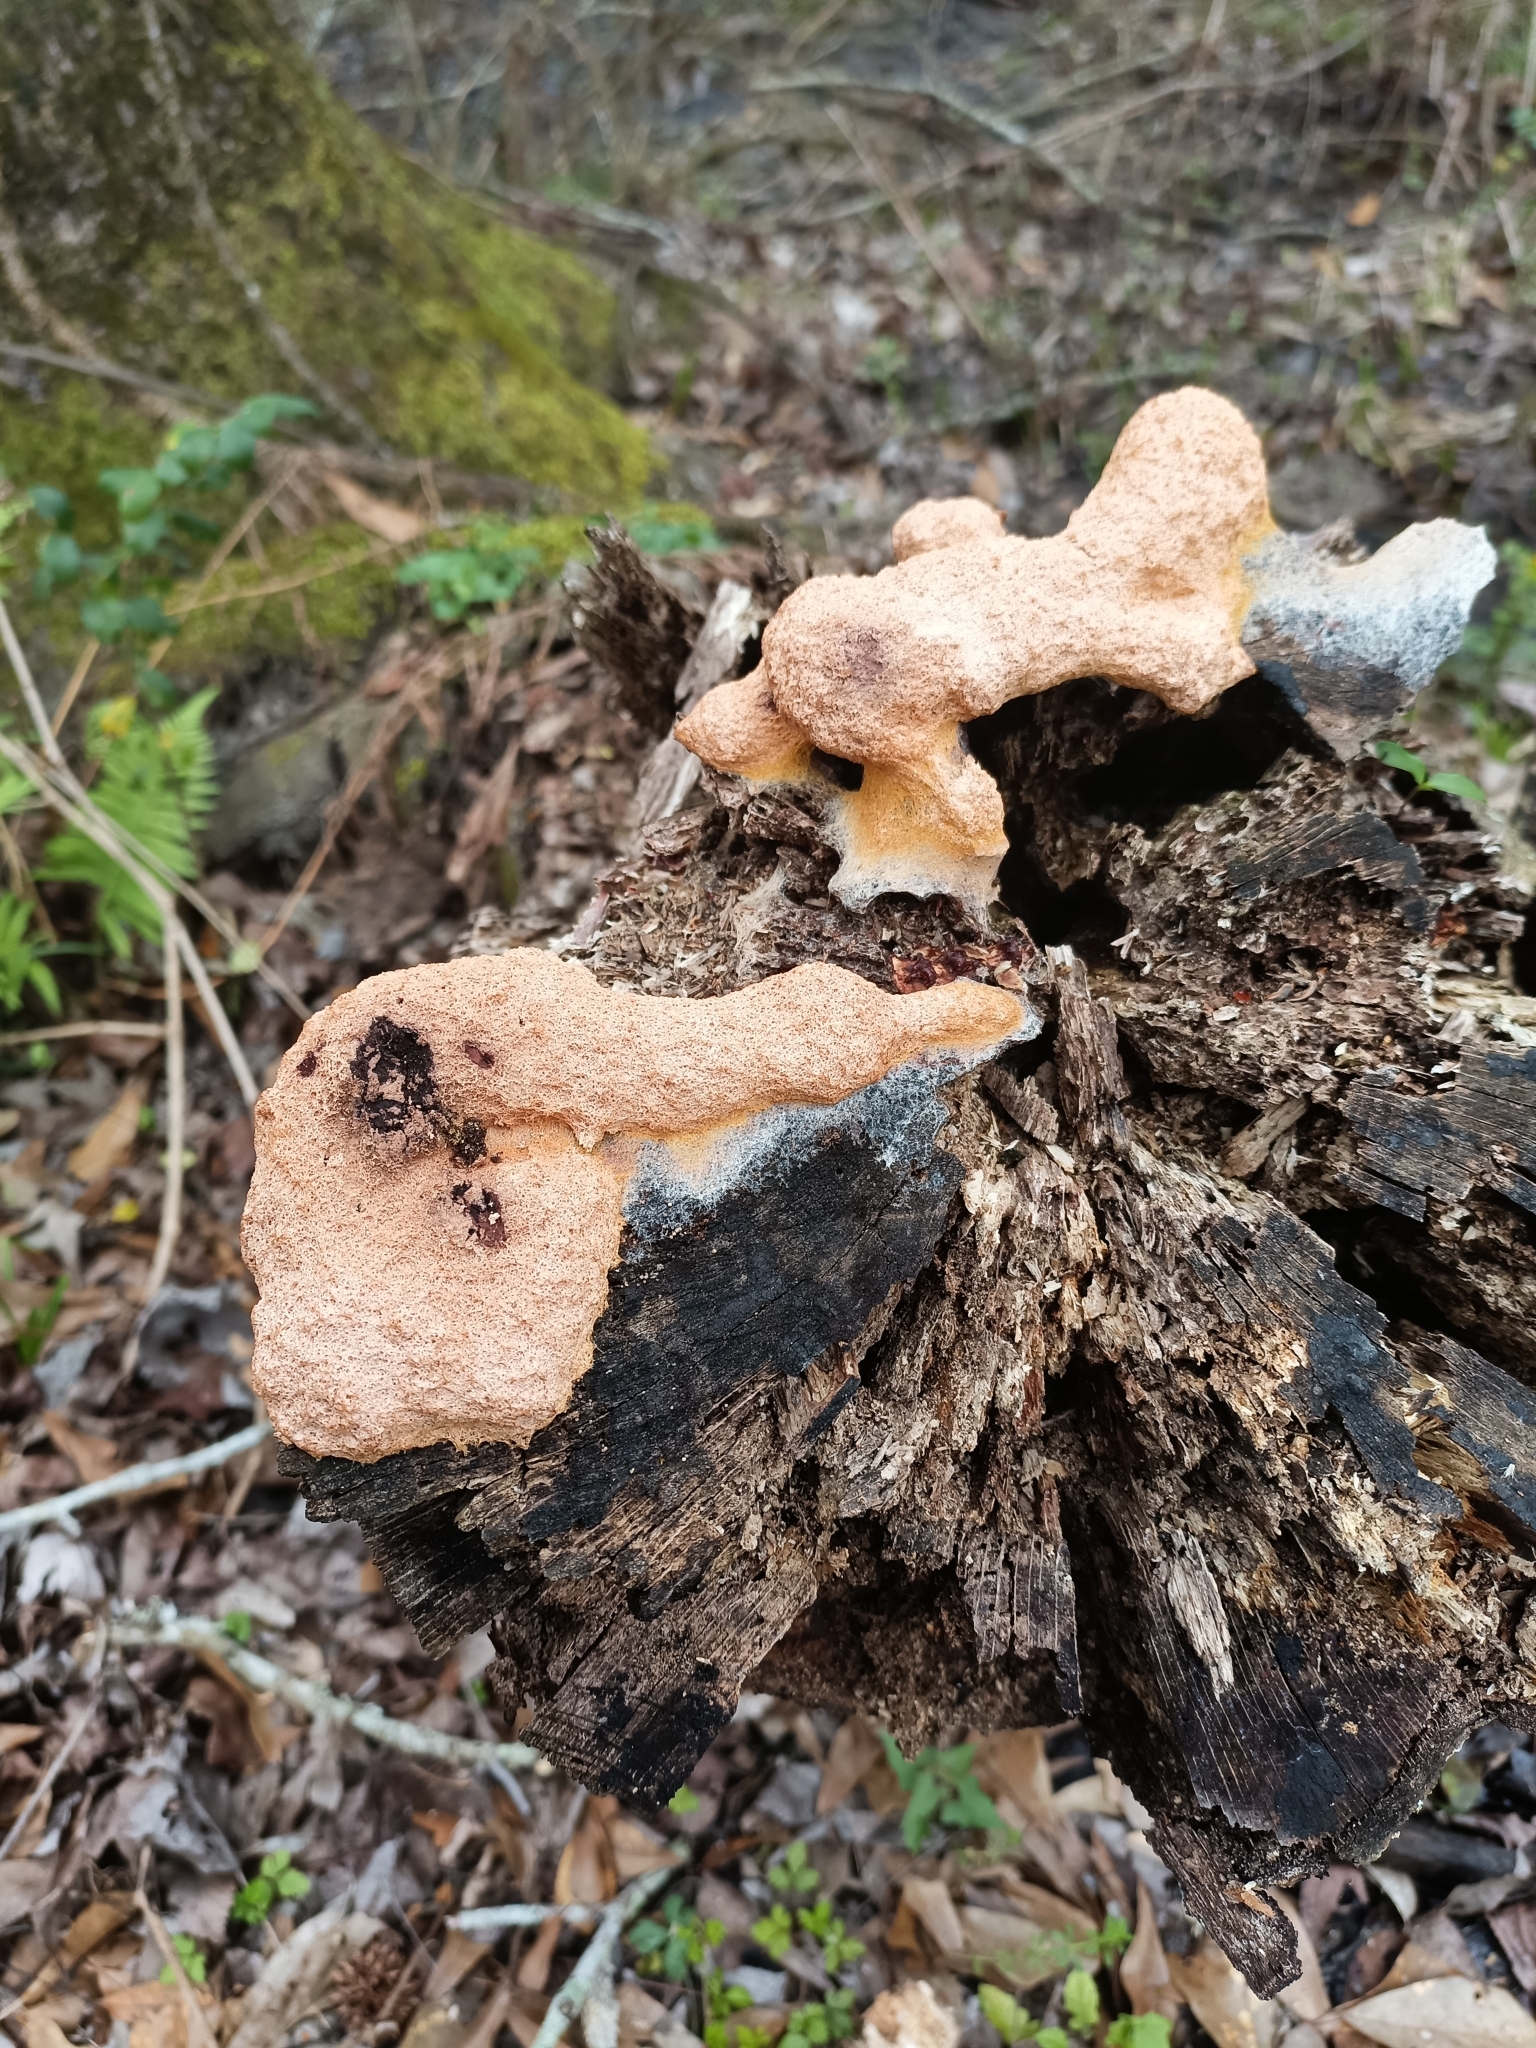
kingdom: Protozoa
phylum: Mycetozoa
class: Myxomycetes
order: Physarales
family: Physaraceae
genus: Fuligo
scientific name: Fuligo septica
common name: Dog vomit slime mold
